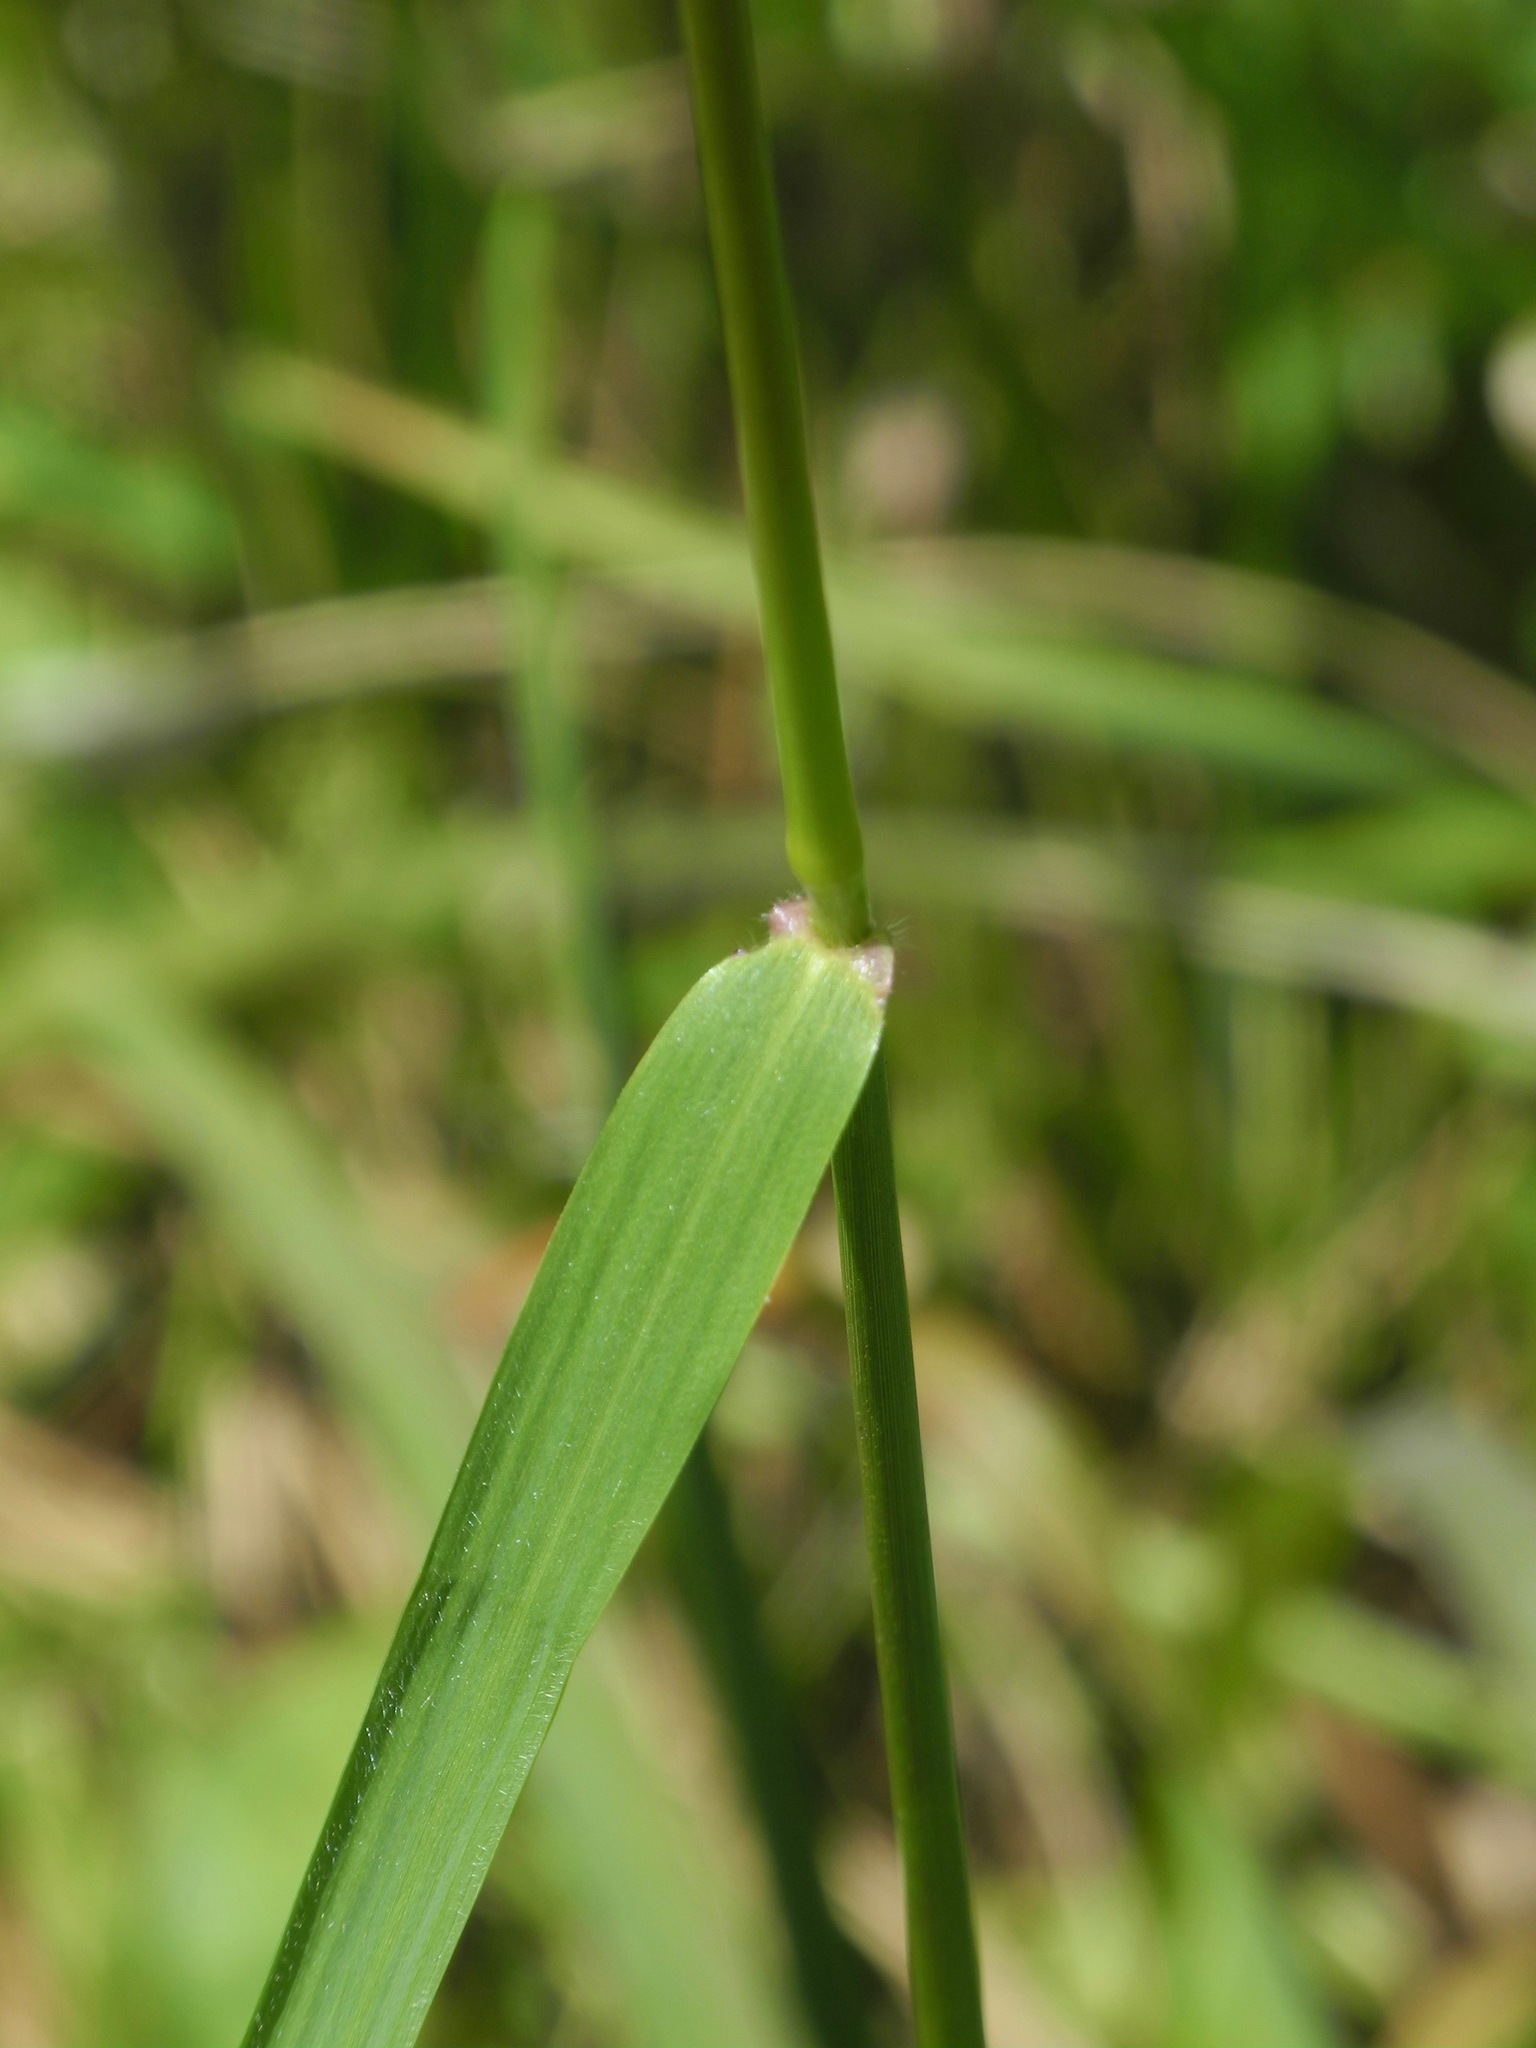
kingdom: Plantae
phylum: Tracheophyta
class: Liliopsida
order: Poales
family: Poaceae
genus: Tridens
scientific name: Tridens flavus
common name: Purpletop
